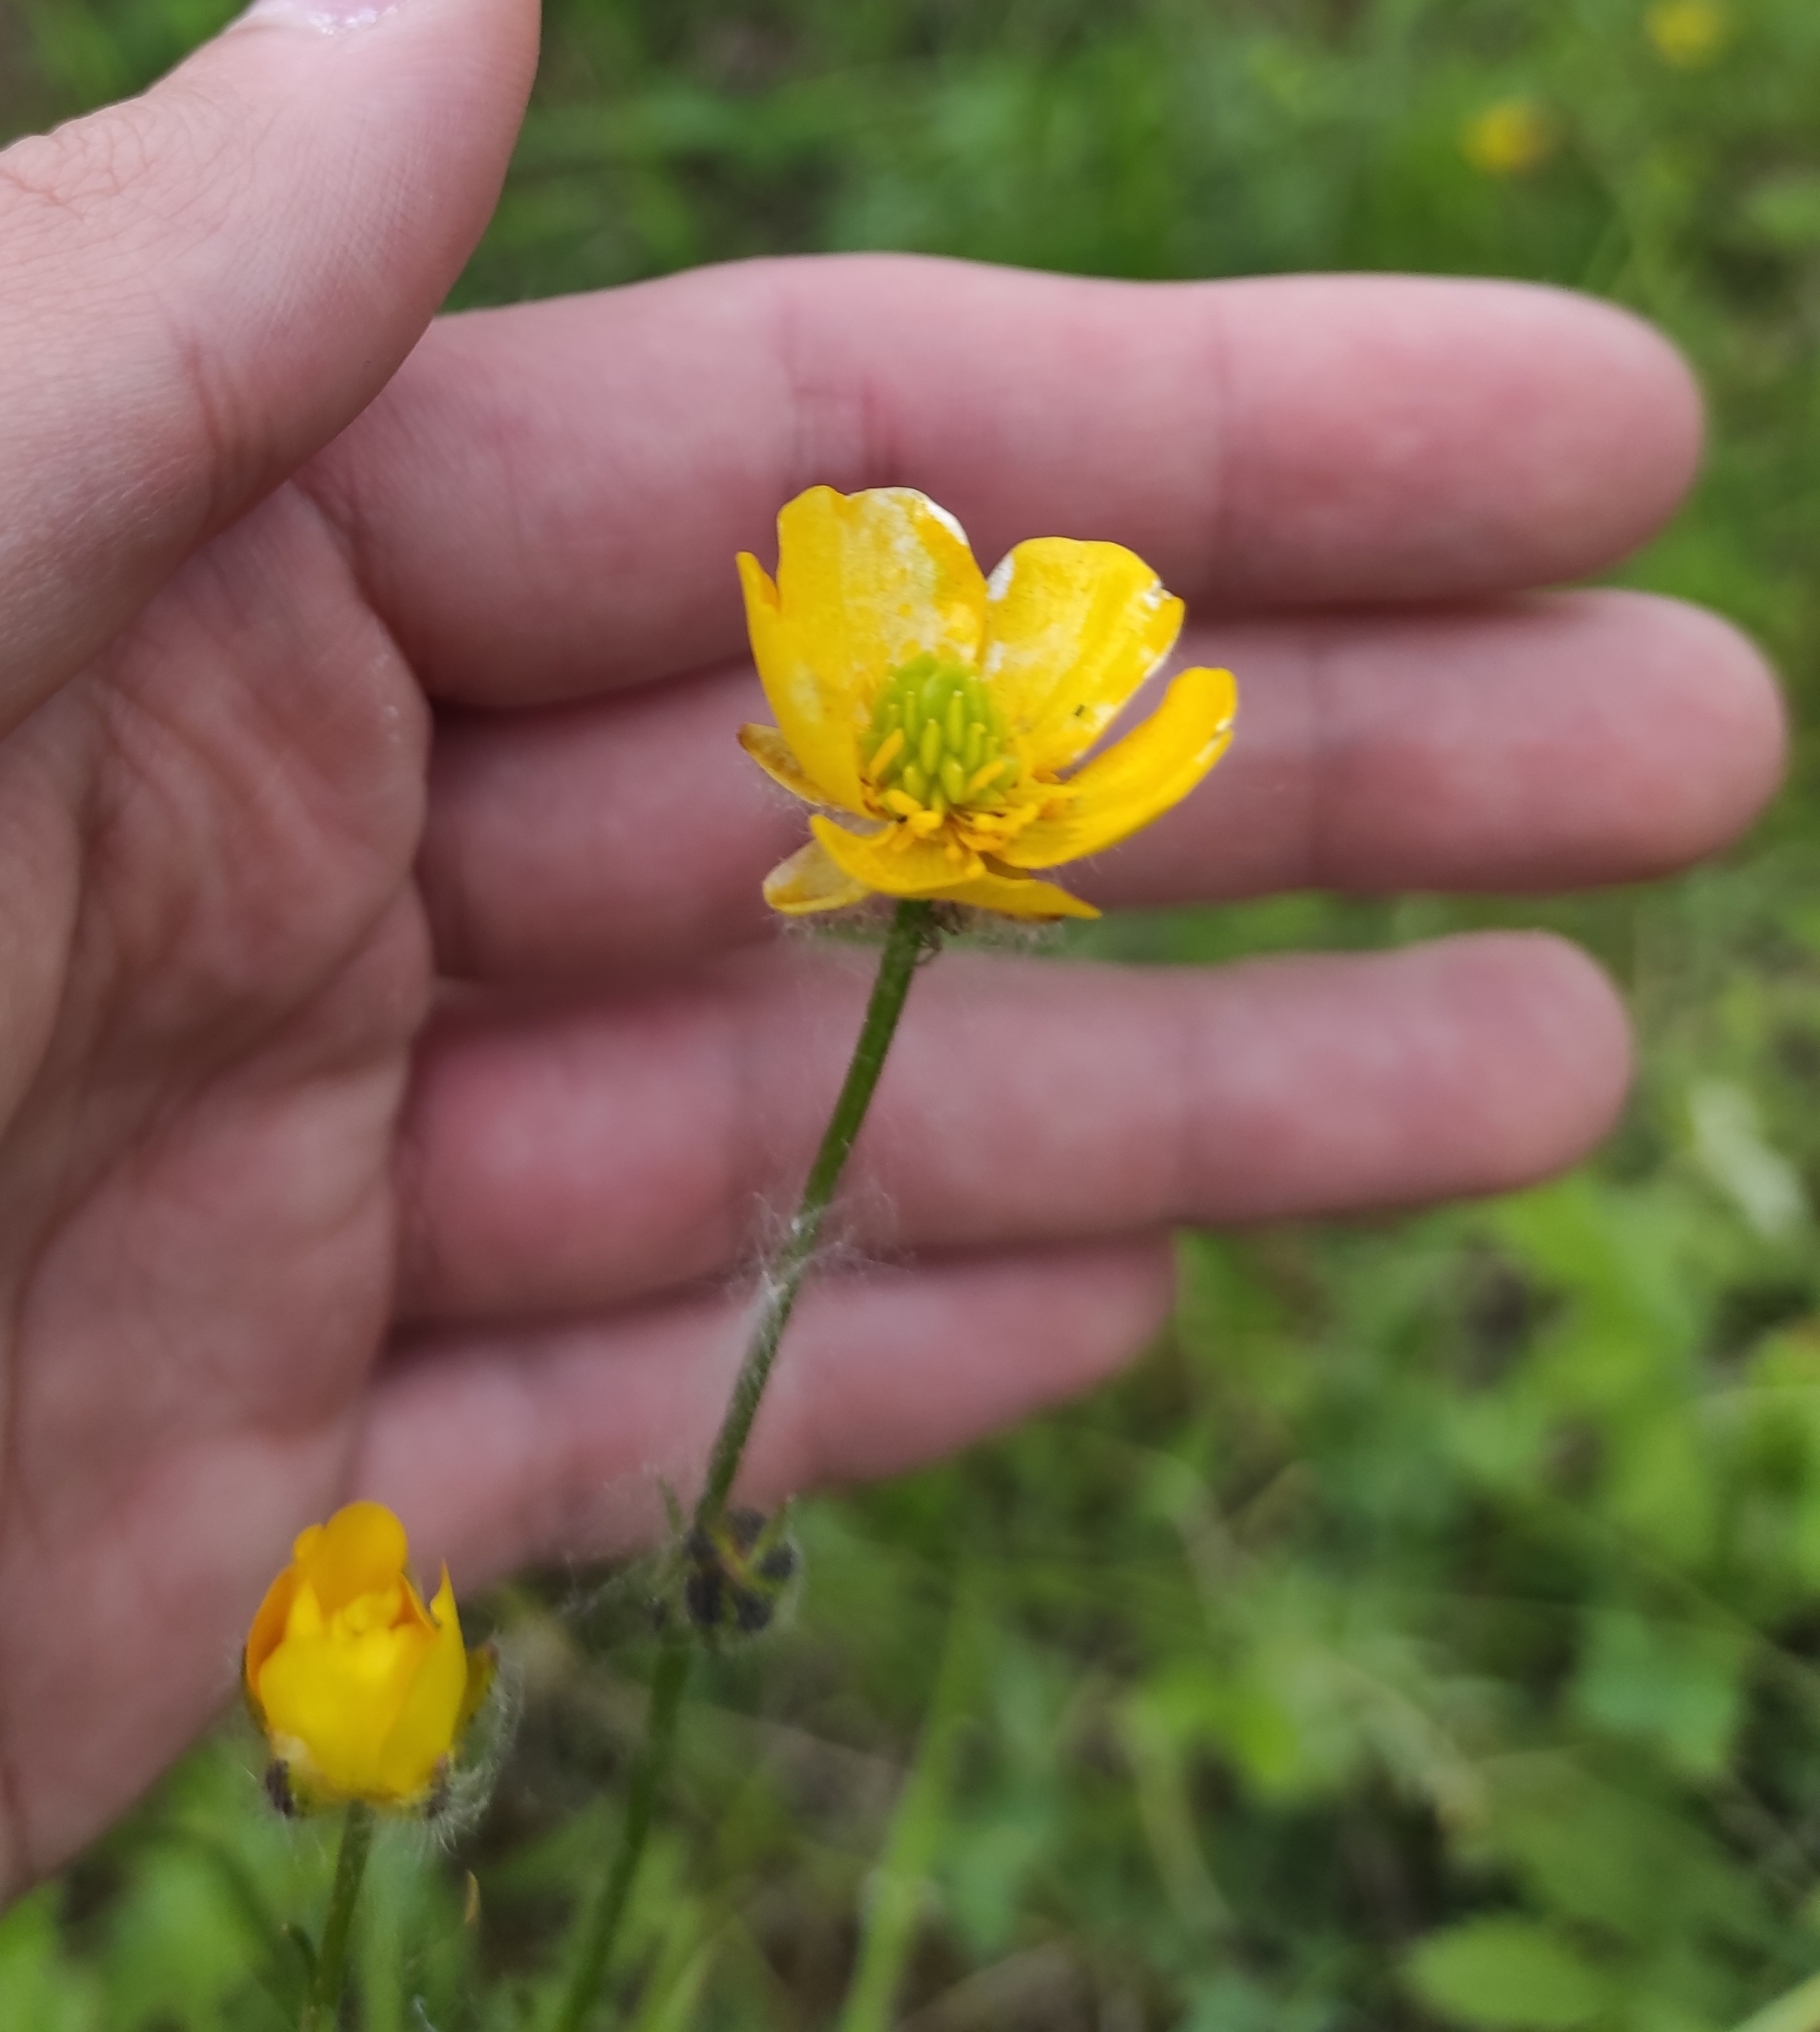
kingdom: Plantae
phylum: Tracheophyta
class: Magnoliopsida
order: Ranunculales
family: Ranunculaceae
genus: Ranunculus
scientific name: Ranunculus polyanthemos
